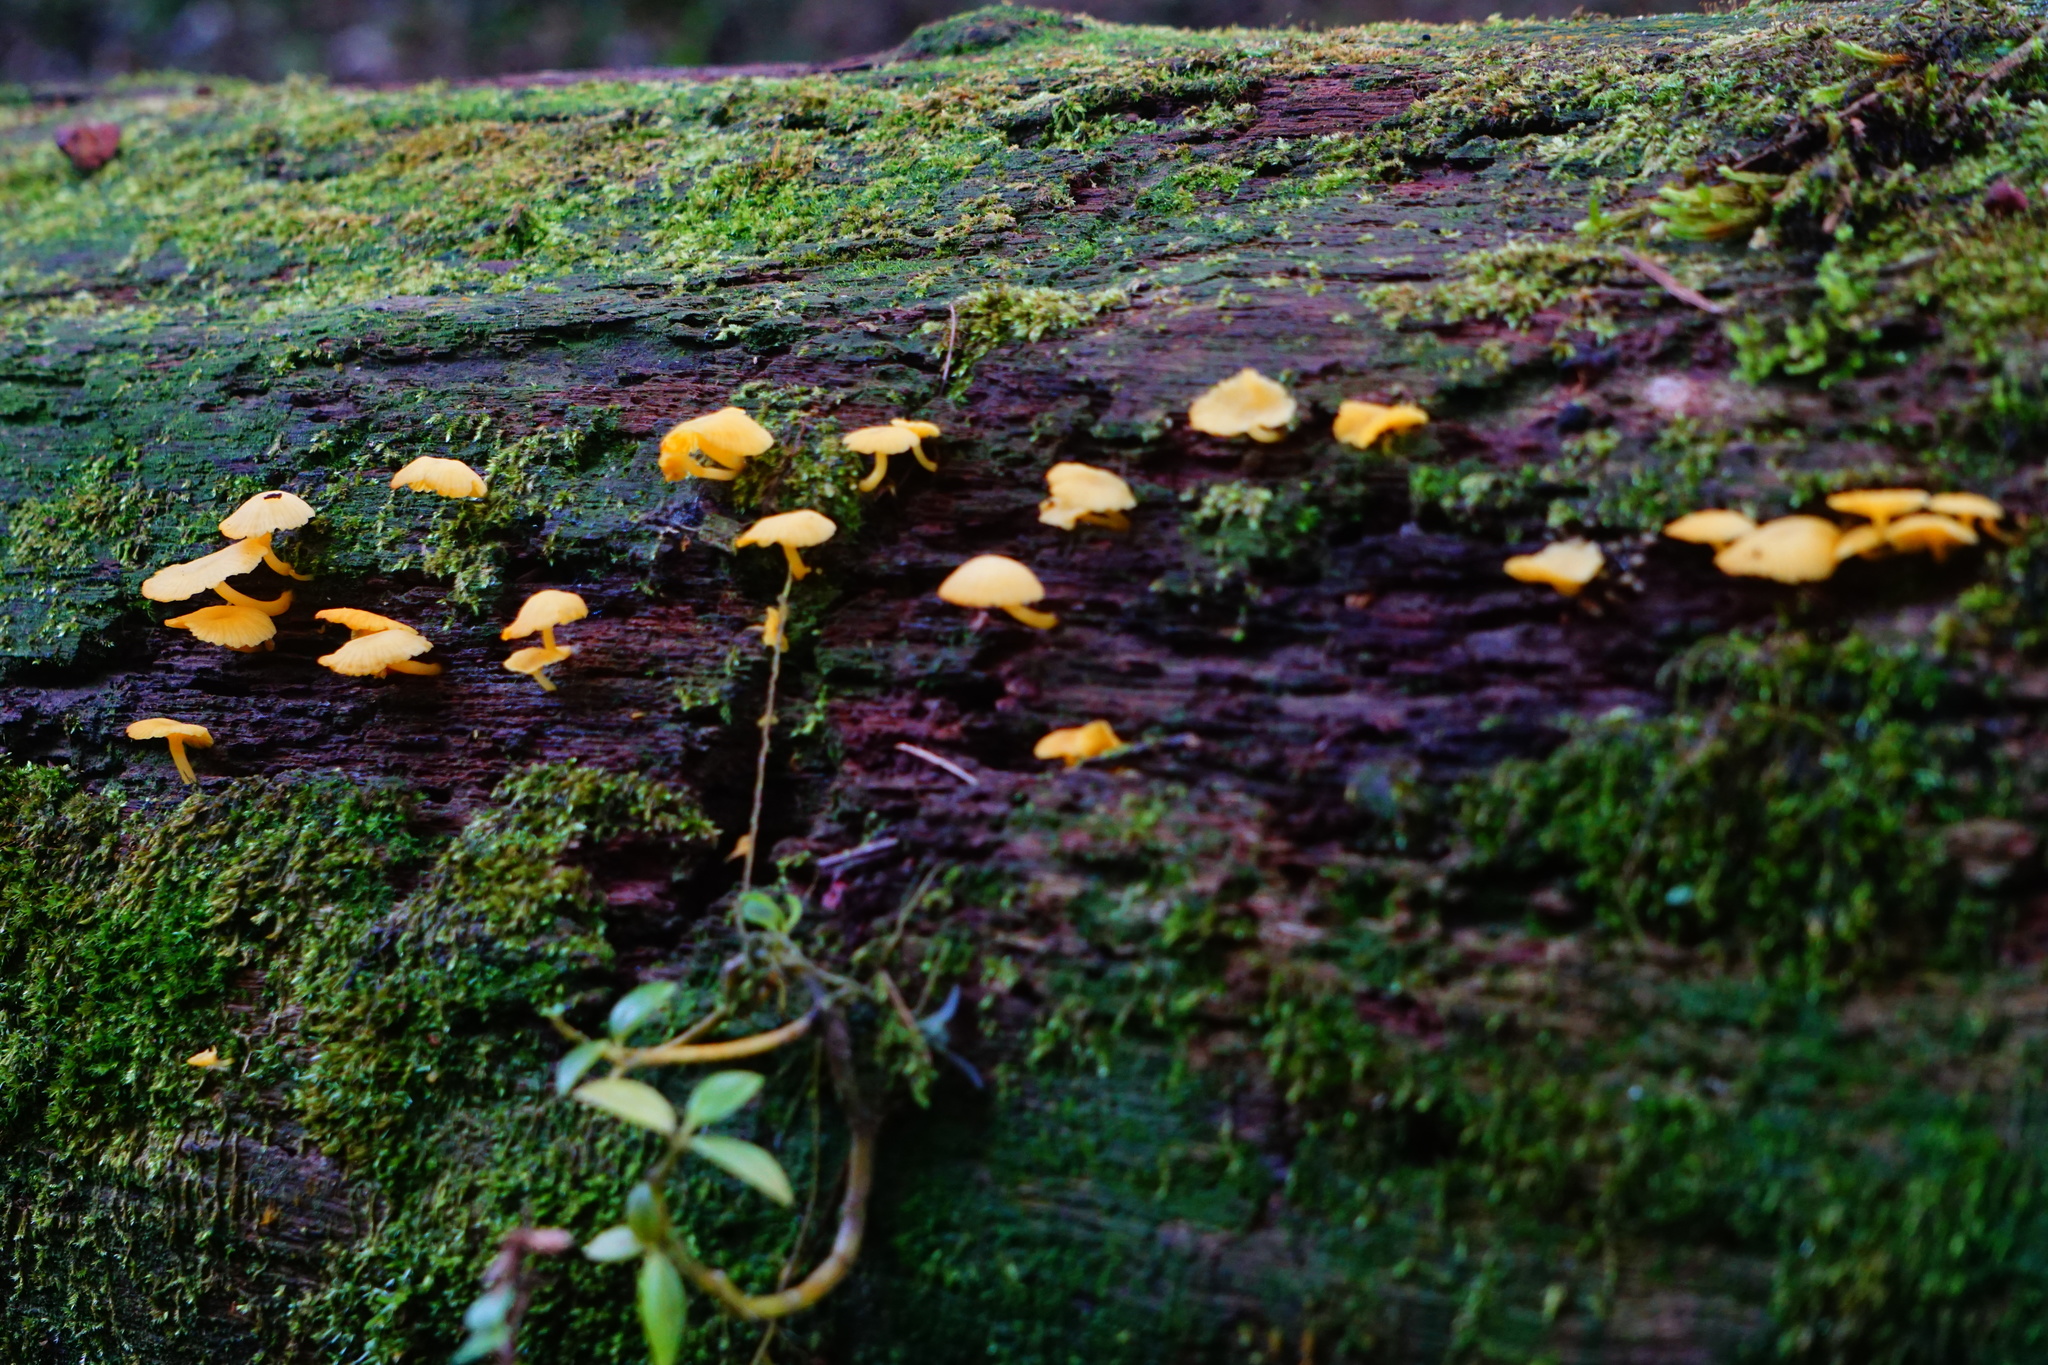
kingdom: Fungi
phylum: Basidiomycota
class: Agaricomycetes
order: Agaricales
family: Tricholomataceae
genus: Tricholomopsis
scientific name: Tricholomopsis aurea
